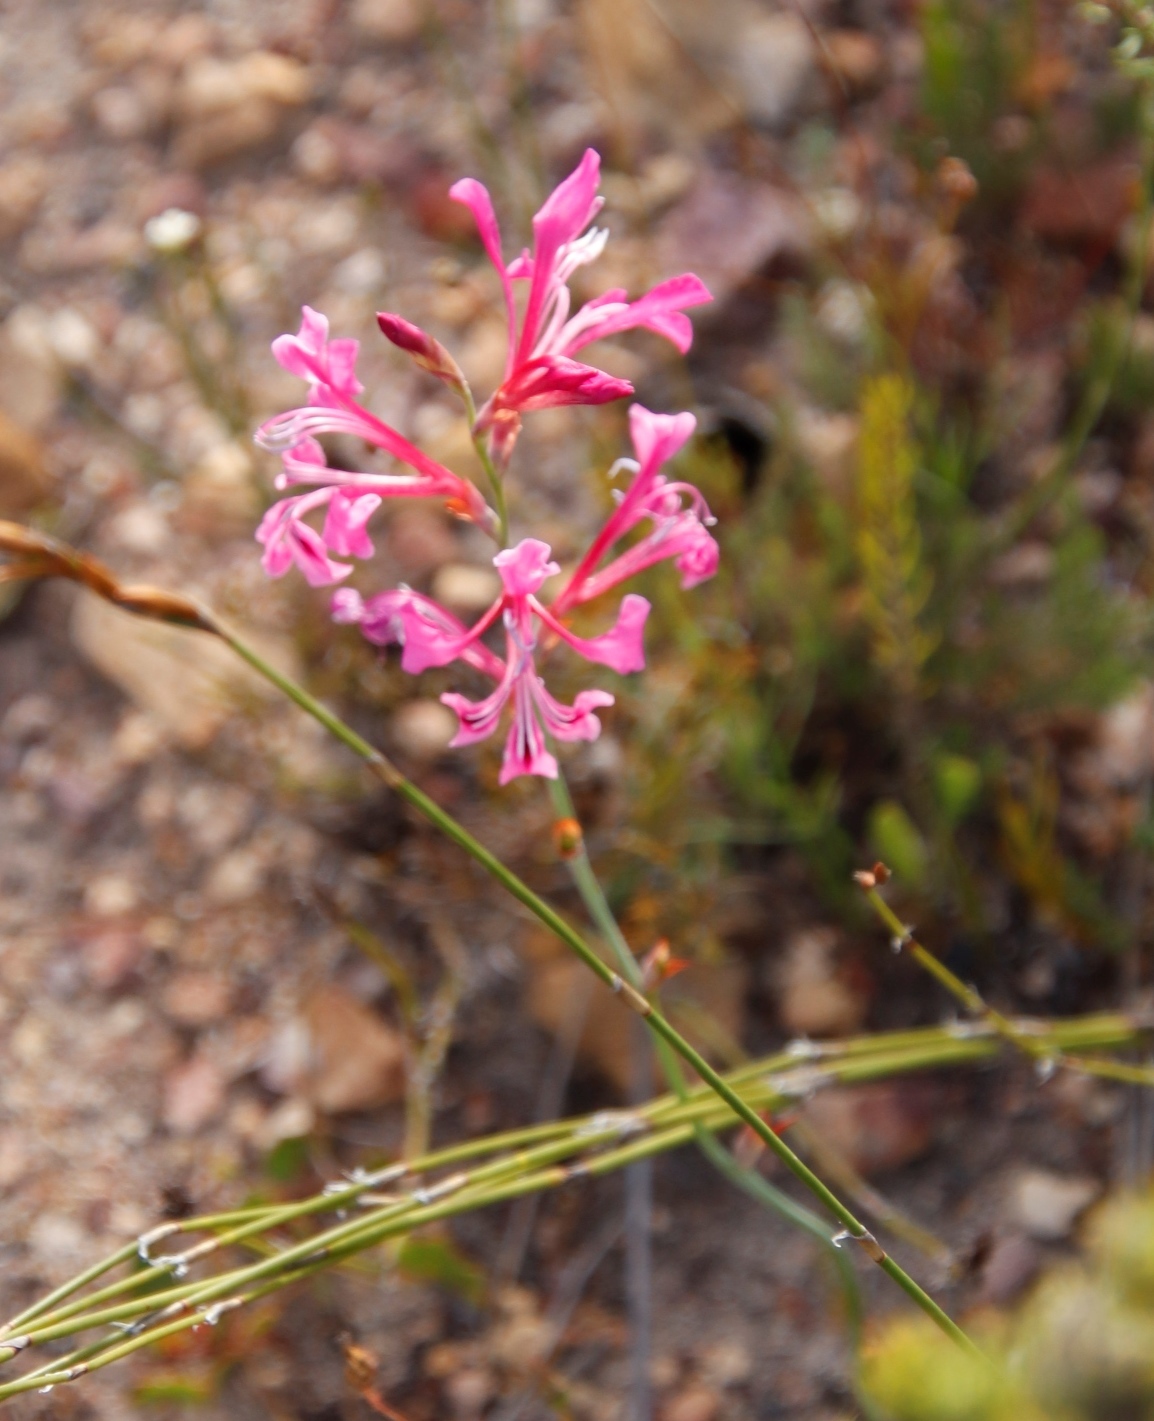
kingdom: Plantae
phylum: Tracheophyta
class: Liliopsida
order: Asparagales
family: Iridaceae
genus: Tritoniopsis
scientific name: Tritoniopsis lata
